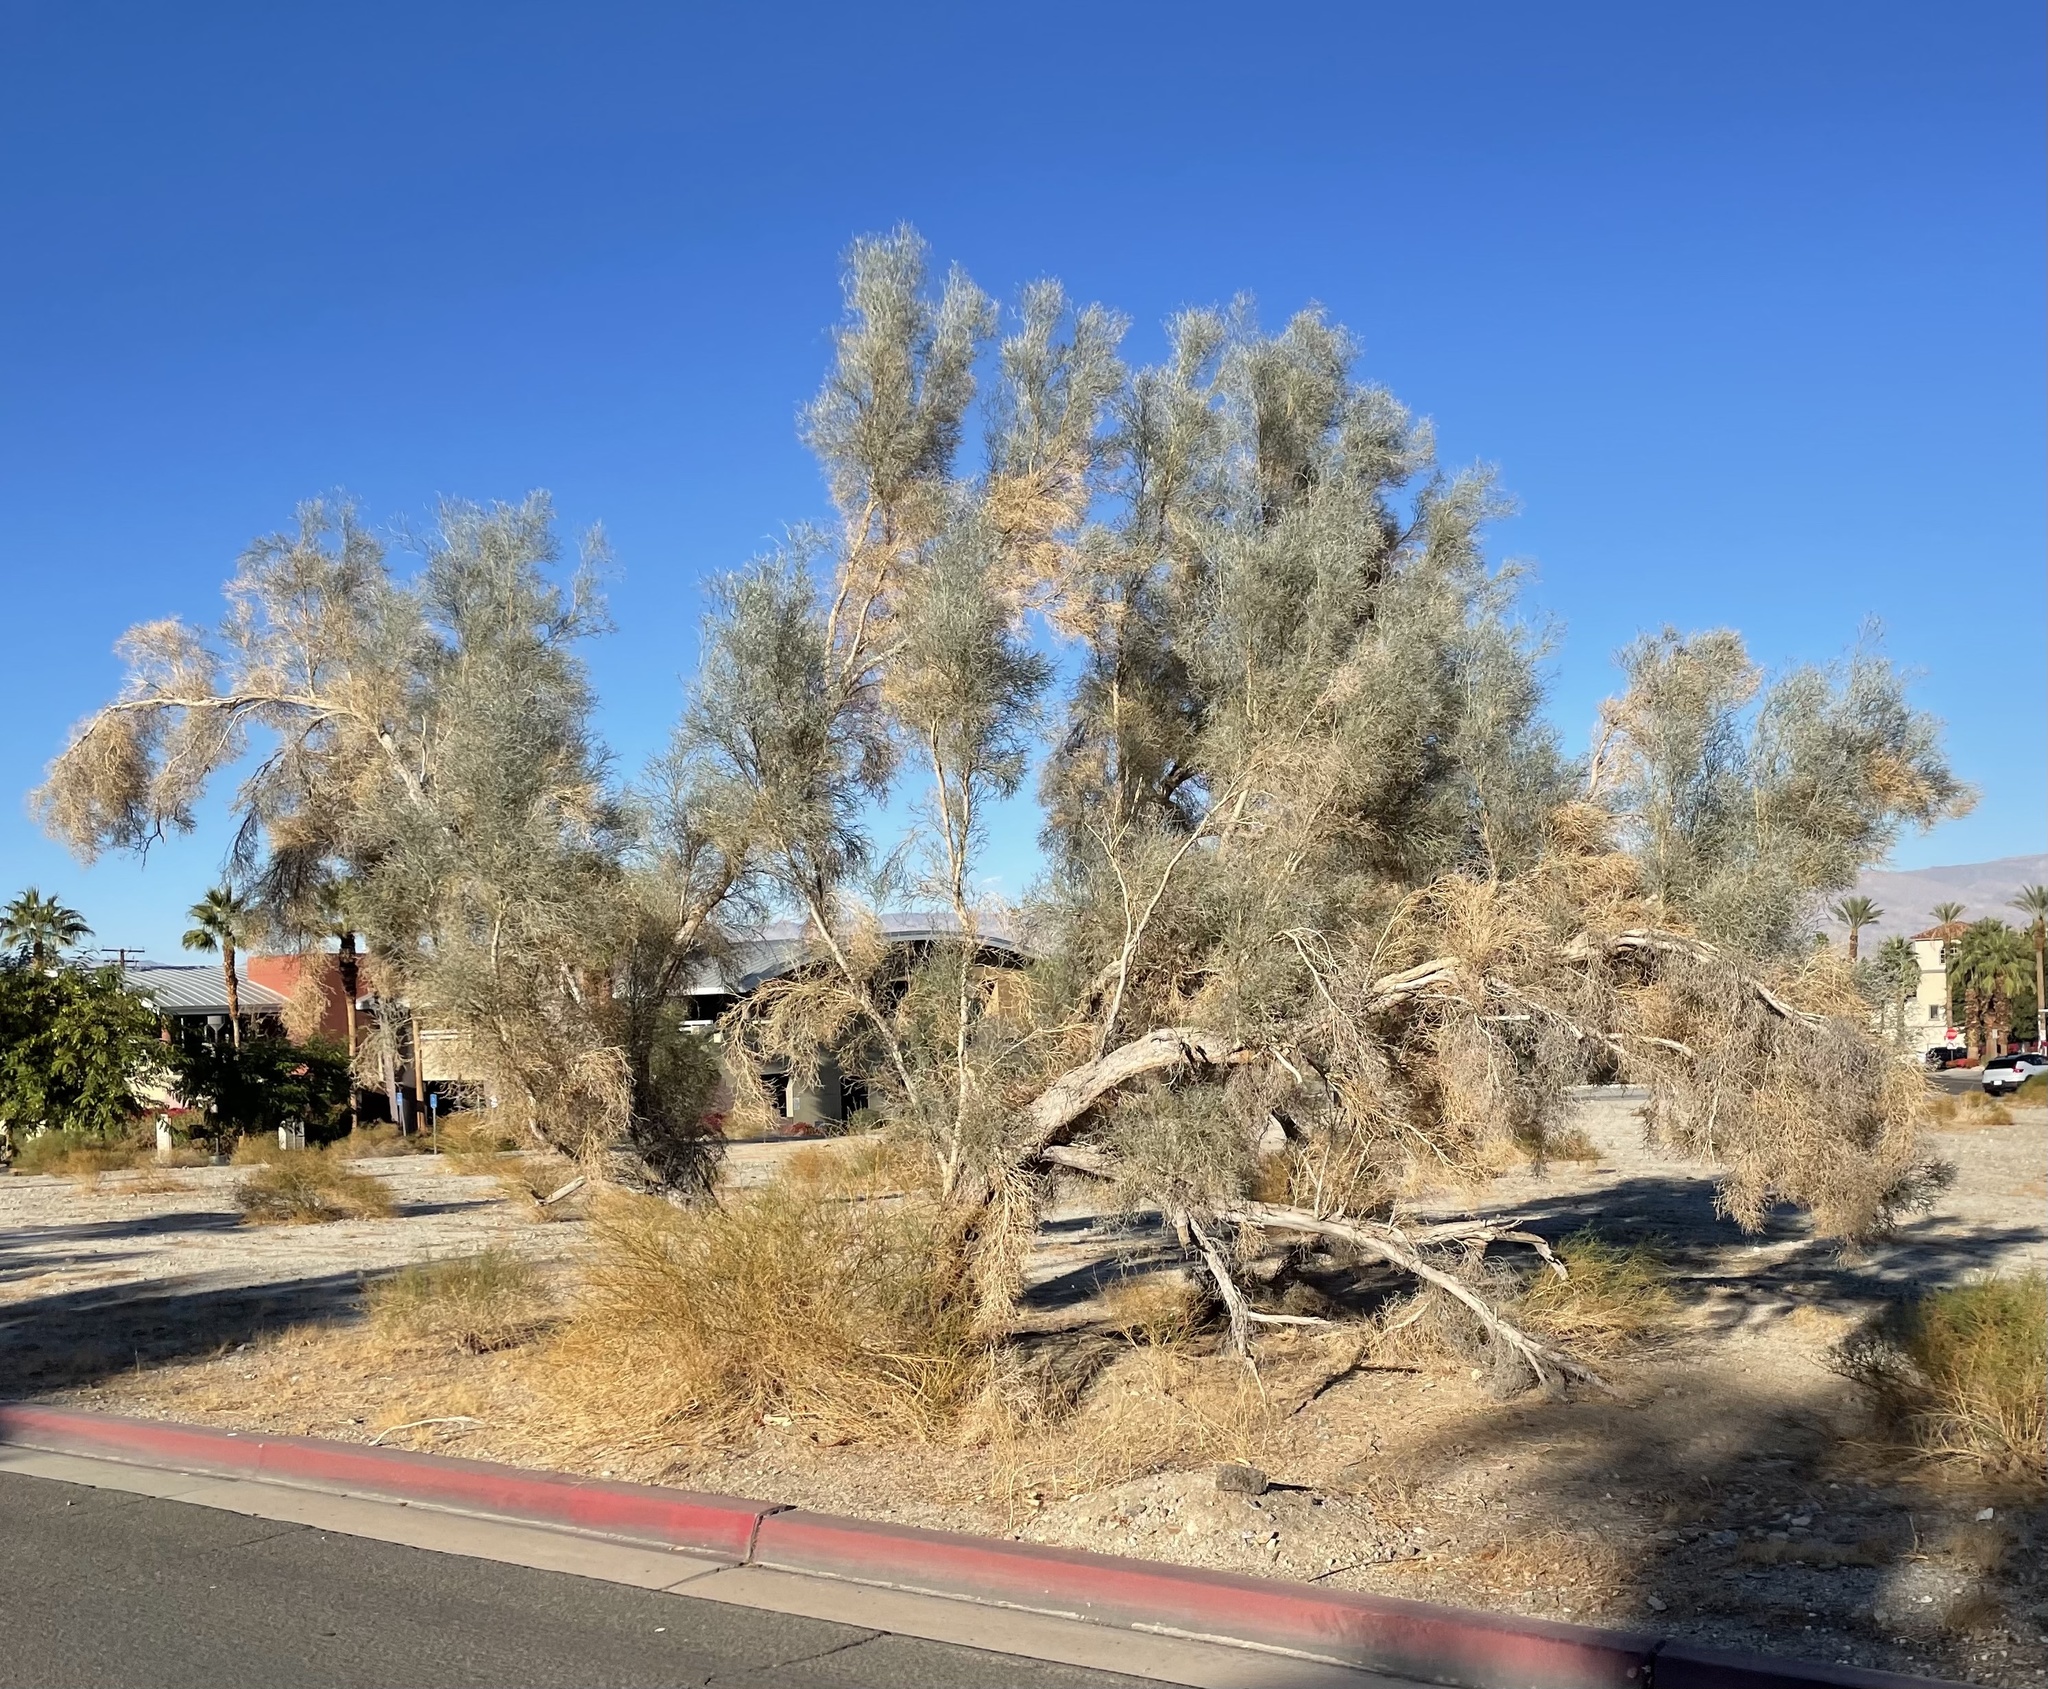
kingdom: Plantae
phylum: Tracheophyta
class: Magnoliopsida
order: Fabales
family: Fabaceae
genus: Psorothamnus
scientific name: Psorothamnus spinosus
